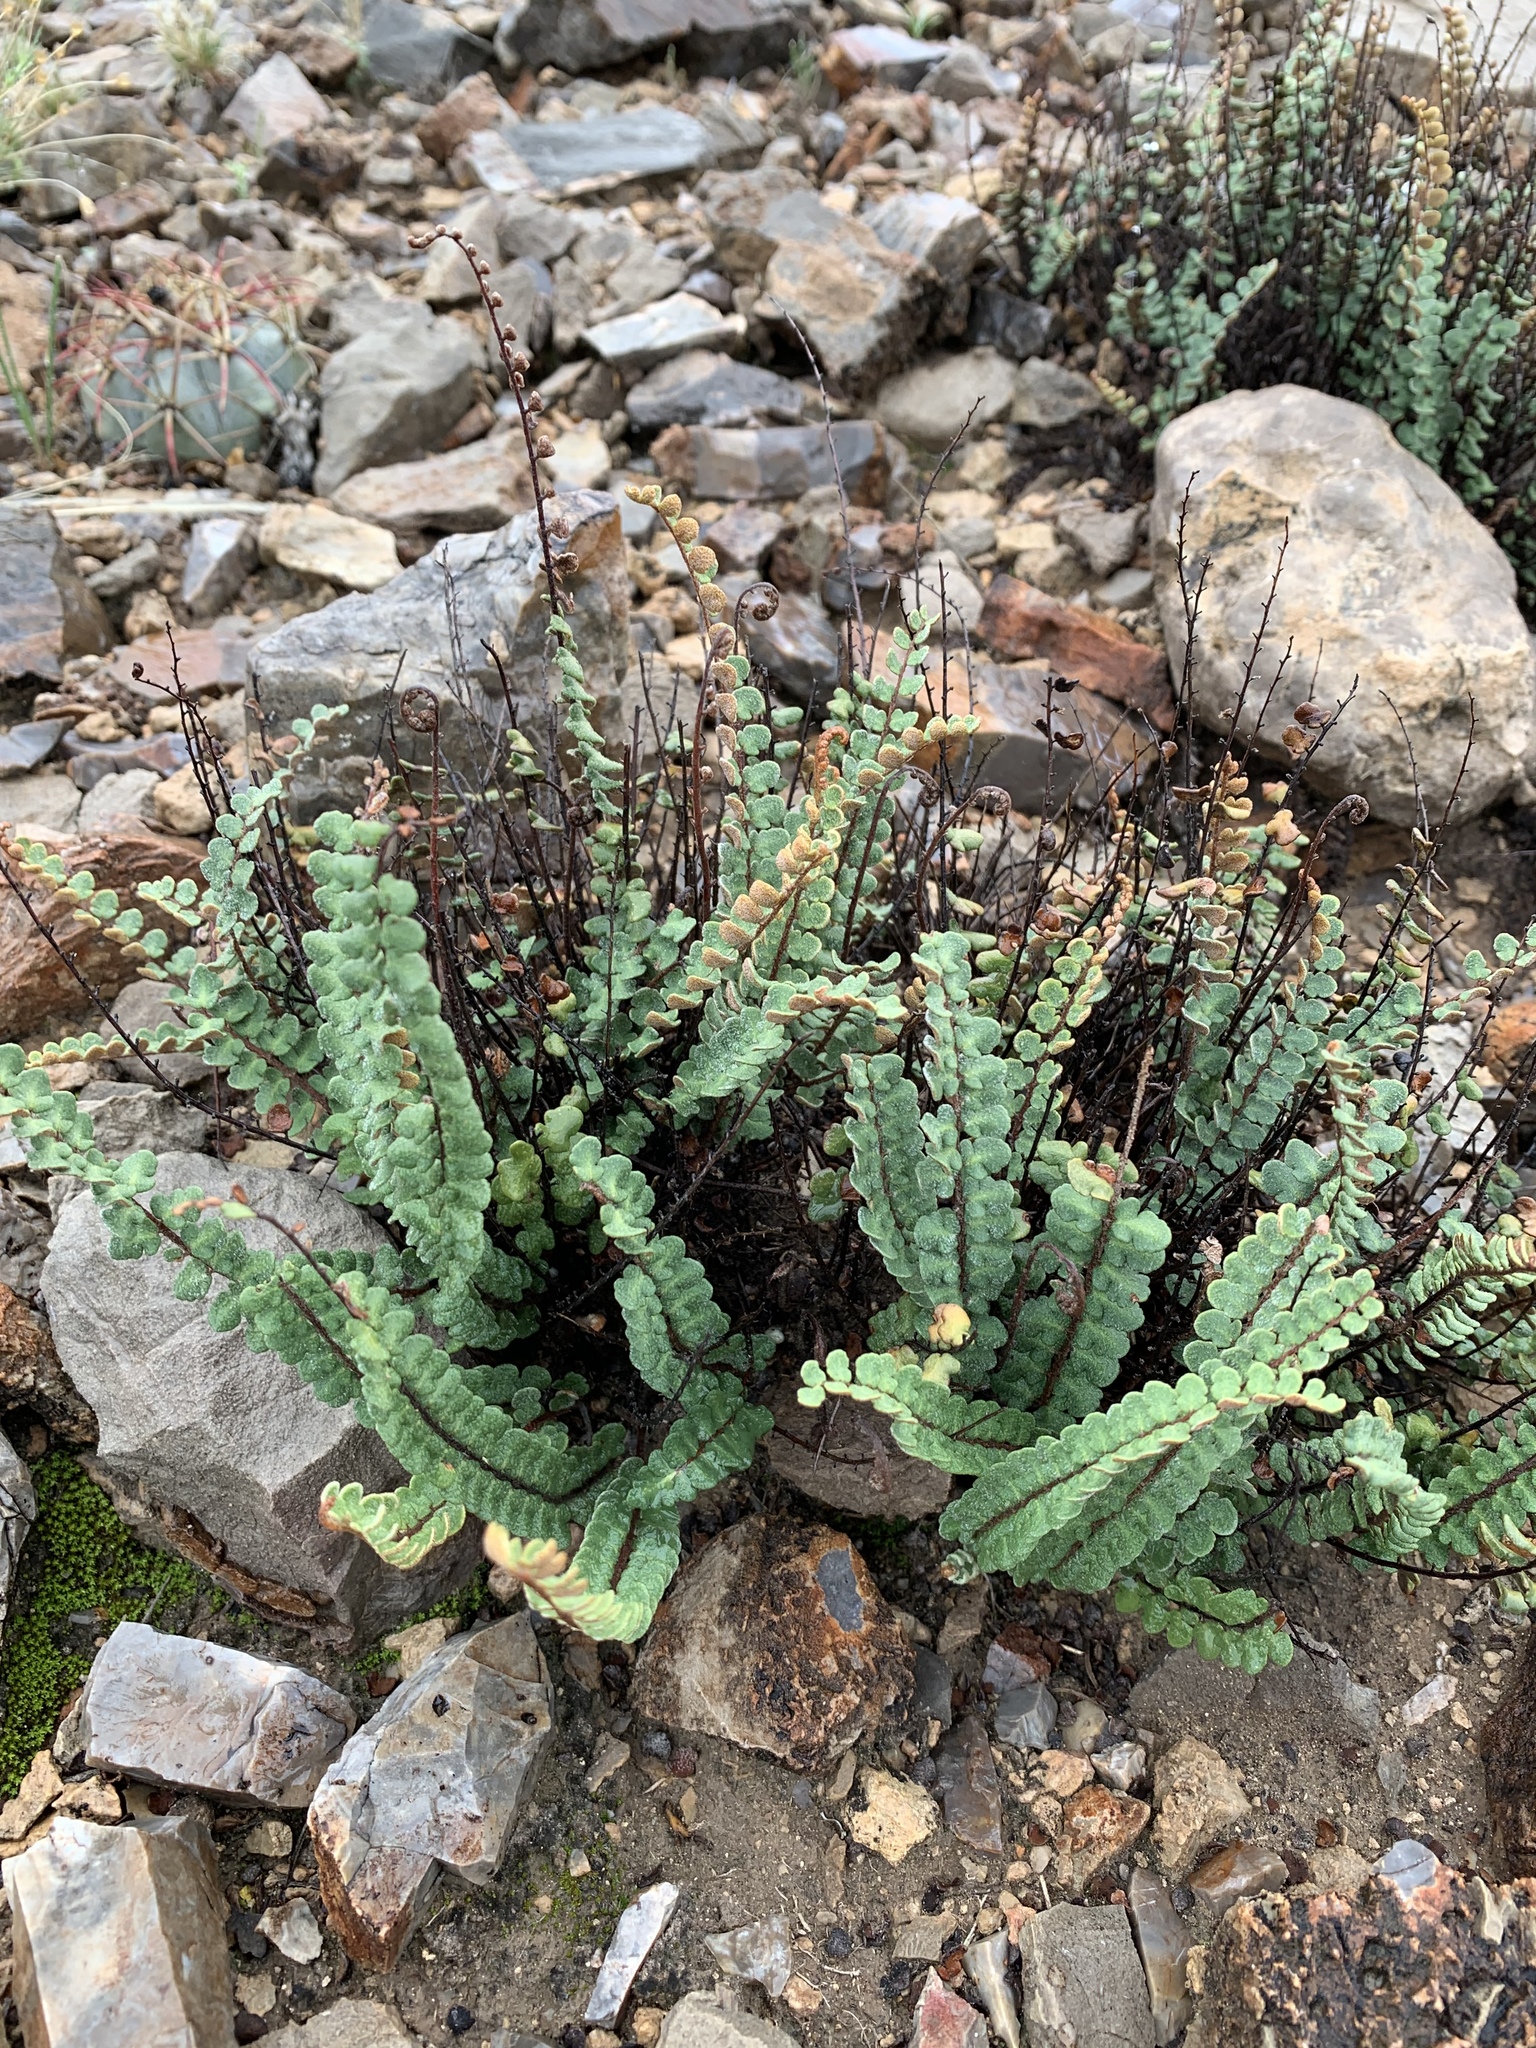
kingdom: Plantae
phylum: Tracheophyta
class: Polypodiopsida
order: Polypodiales
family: Pteridaceae
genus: Astrolepis
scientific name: Astrolepis cochisensis
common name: Scaly cloak fern
